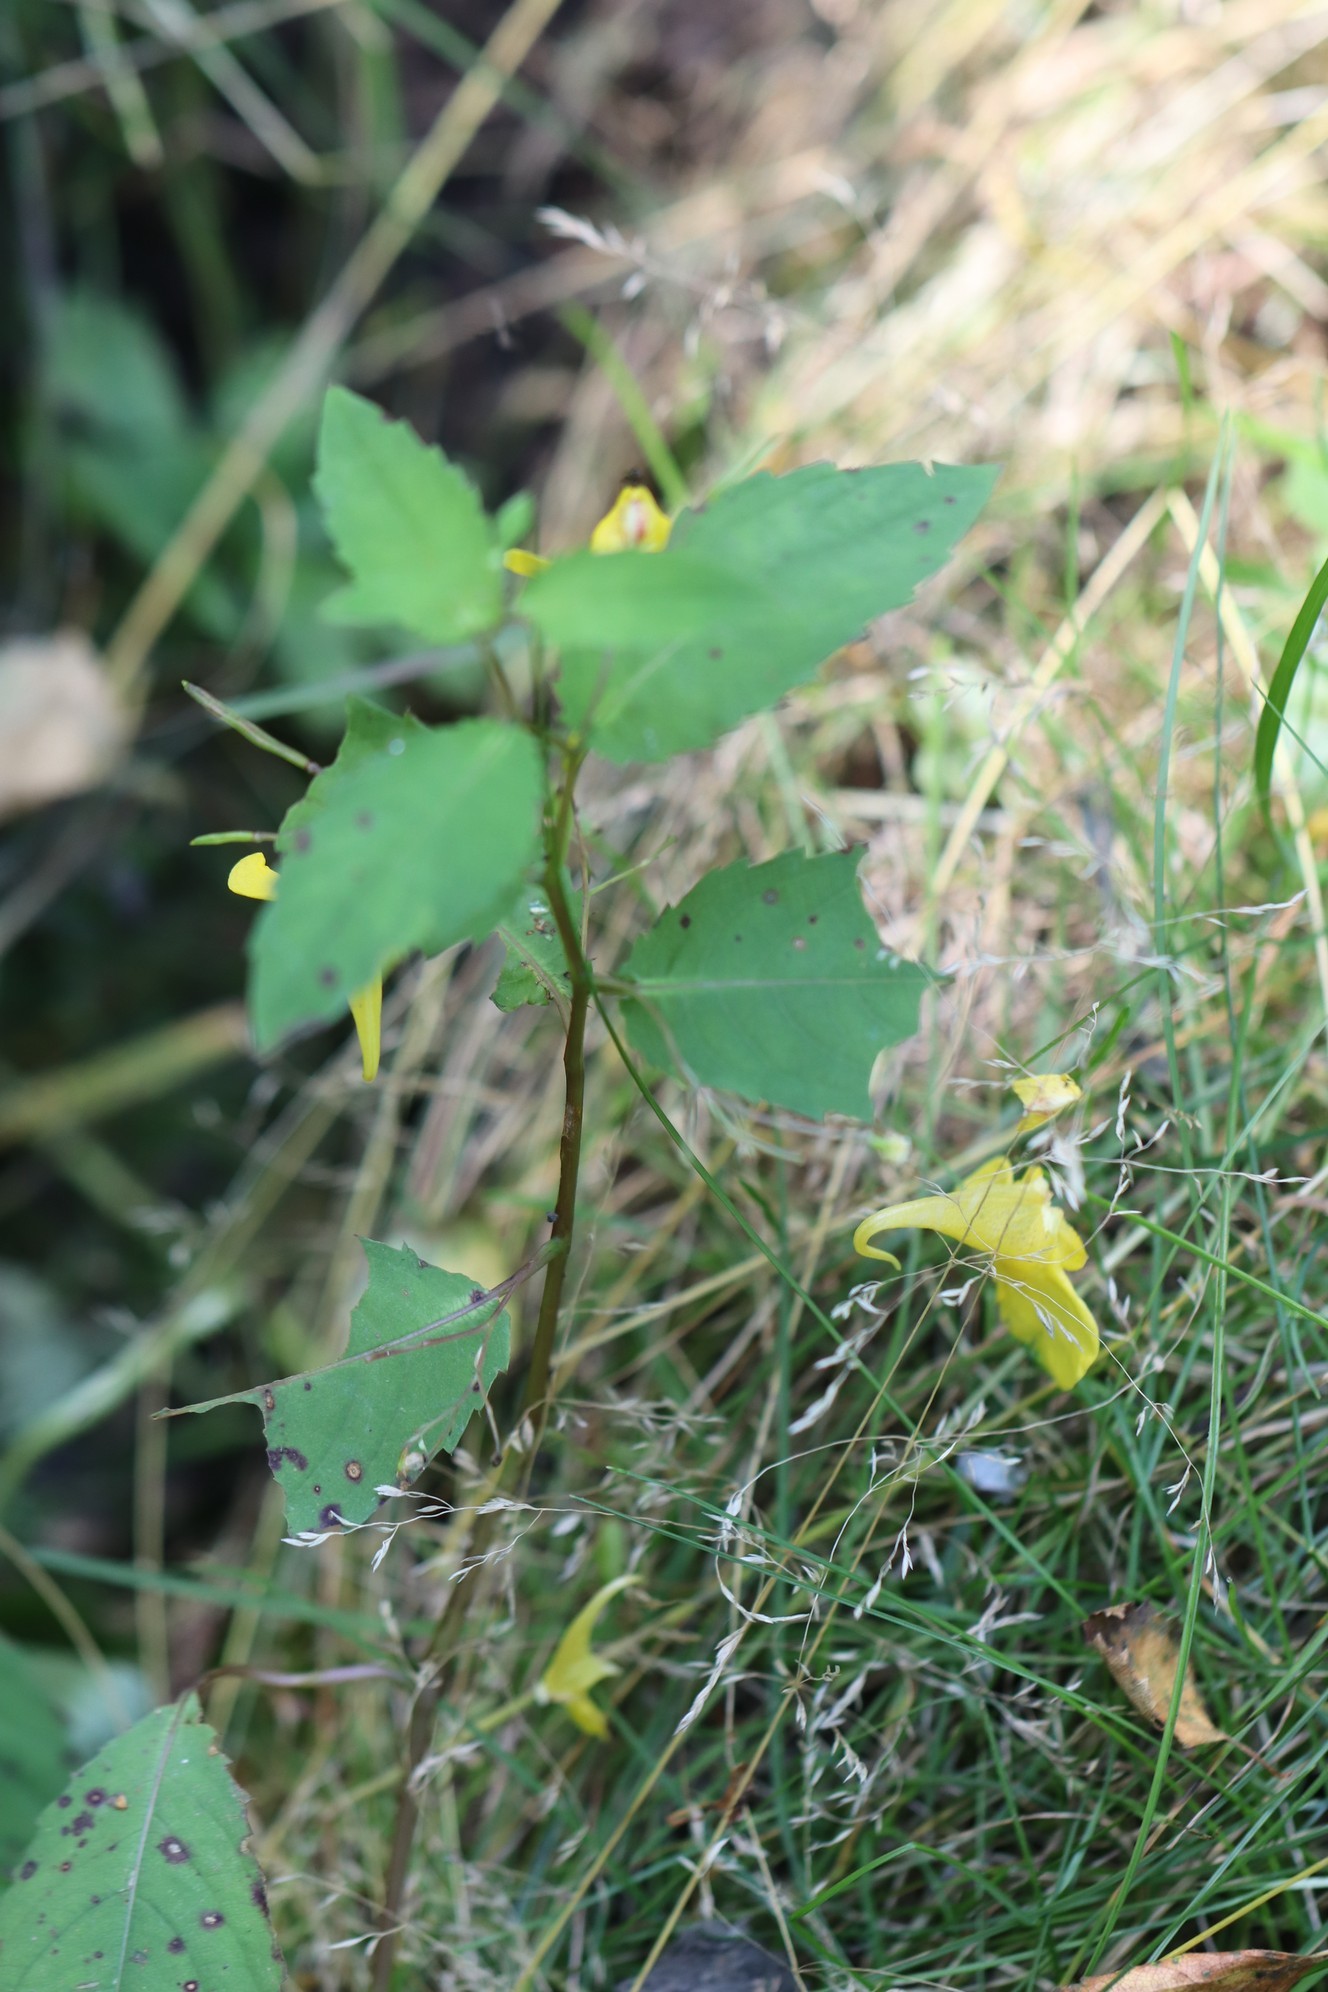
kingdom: Plantae
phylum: Tracheophyta
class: Magnoliopsida
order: Ericales
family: Balsaminaceae
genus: Impatiens
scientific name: Impatiens noli-tangere
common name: Touch-me-not balsam
